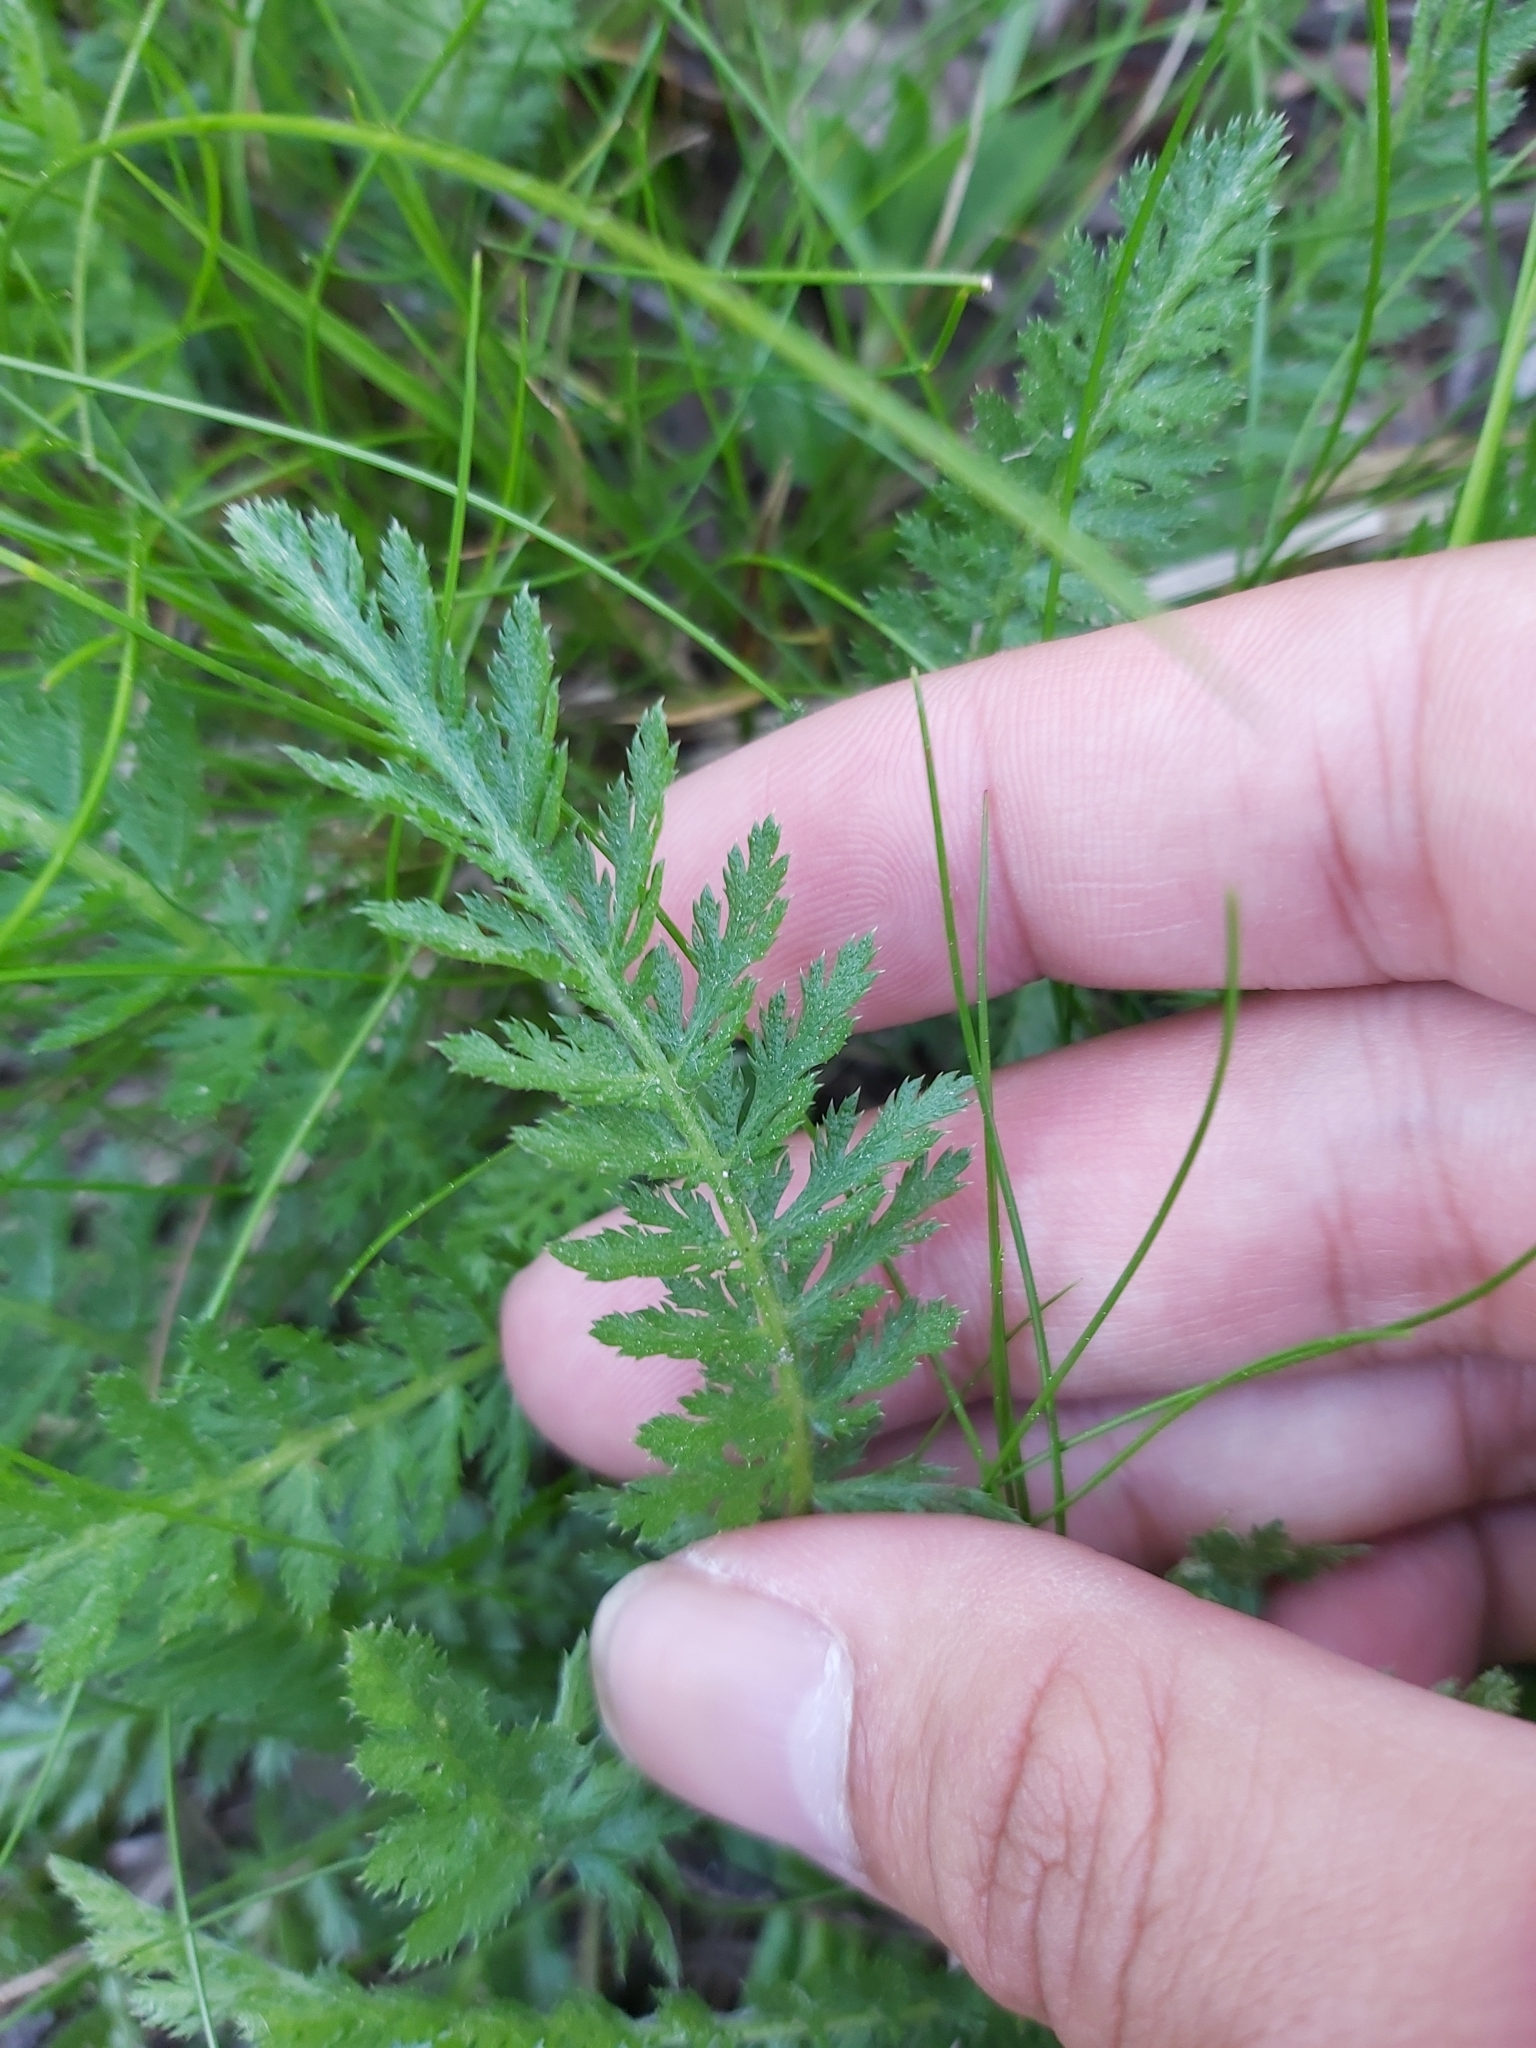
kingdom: Plantae
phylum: Tracheophyta
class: Magnoliopsida
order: Asterales
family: Asteraceae
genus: Tanacetum
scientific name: Tanacetum vulgare
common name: Common tansy
